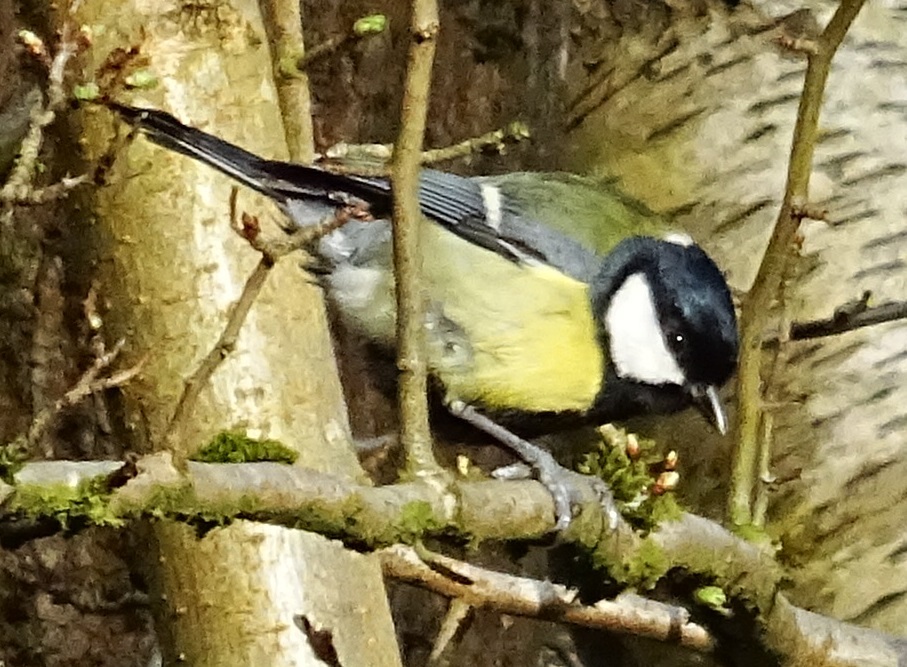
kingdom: Animalia
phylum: Chordata
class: Aves
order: Passeriformes
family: Paridae
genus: Parus
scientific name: Parus major
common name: Great tit
